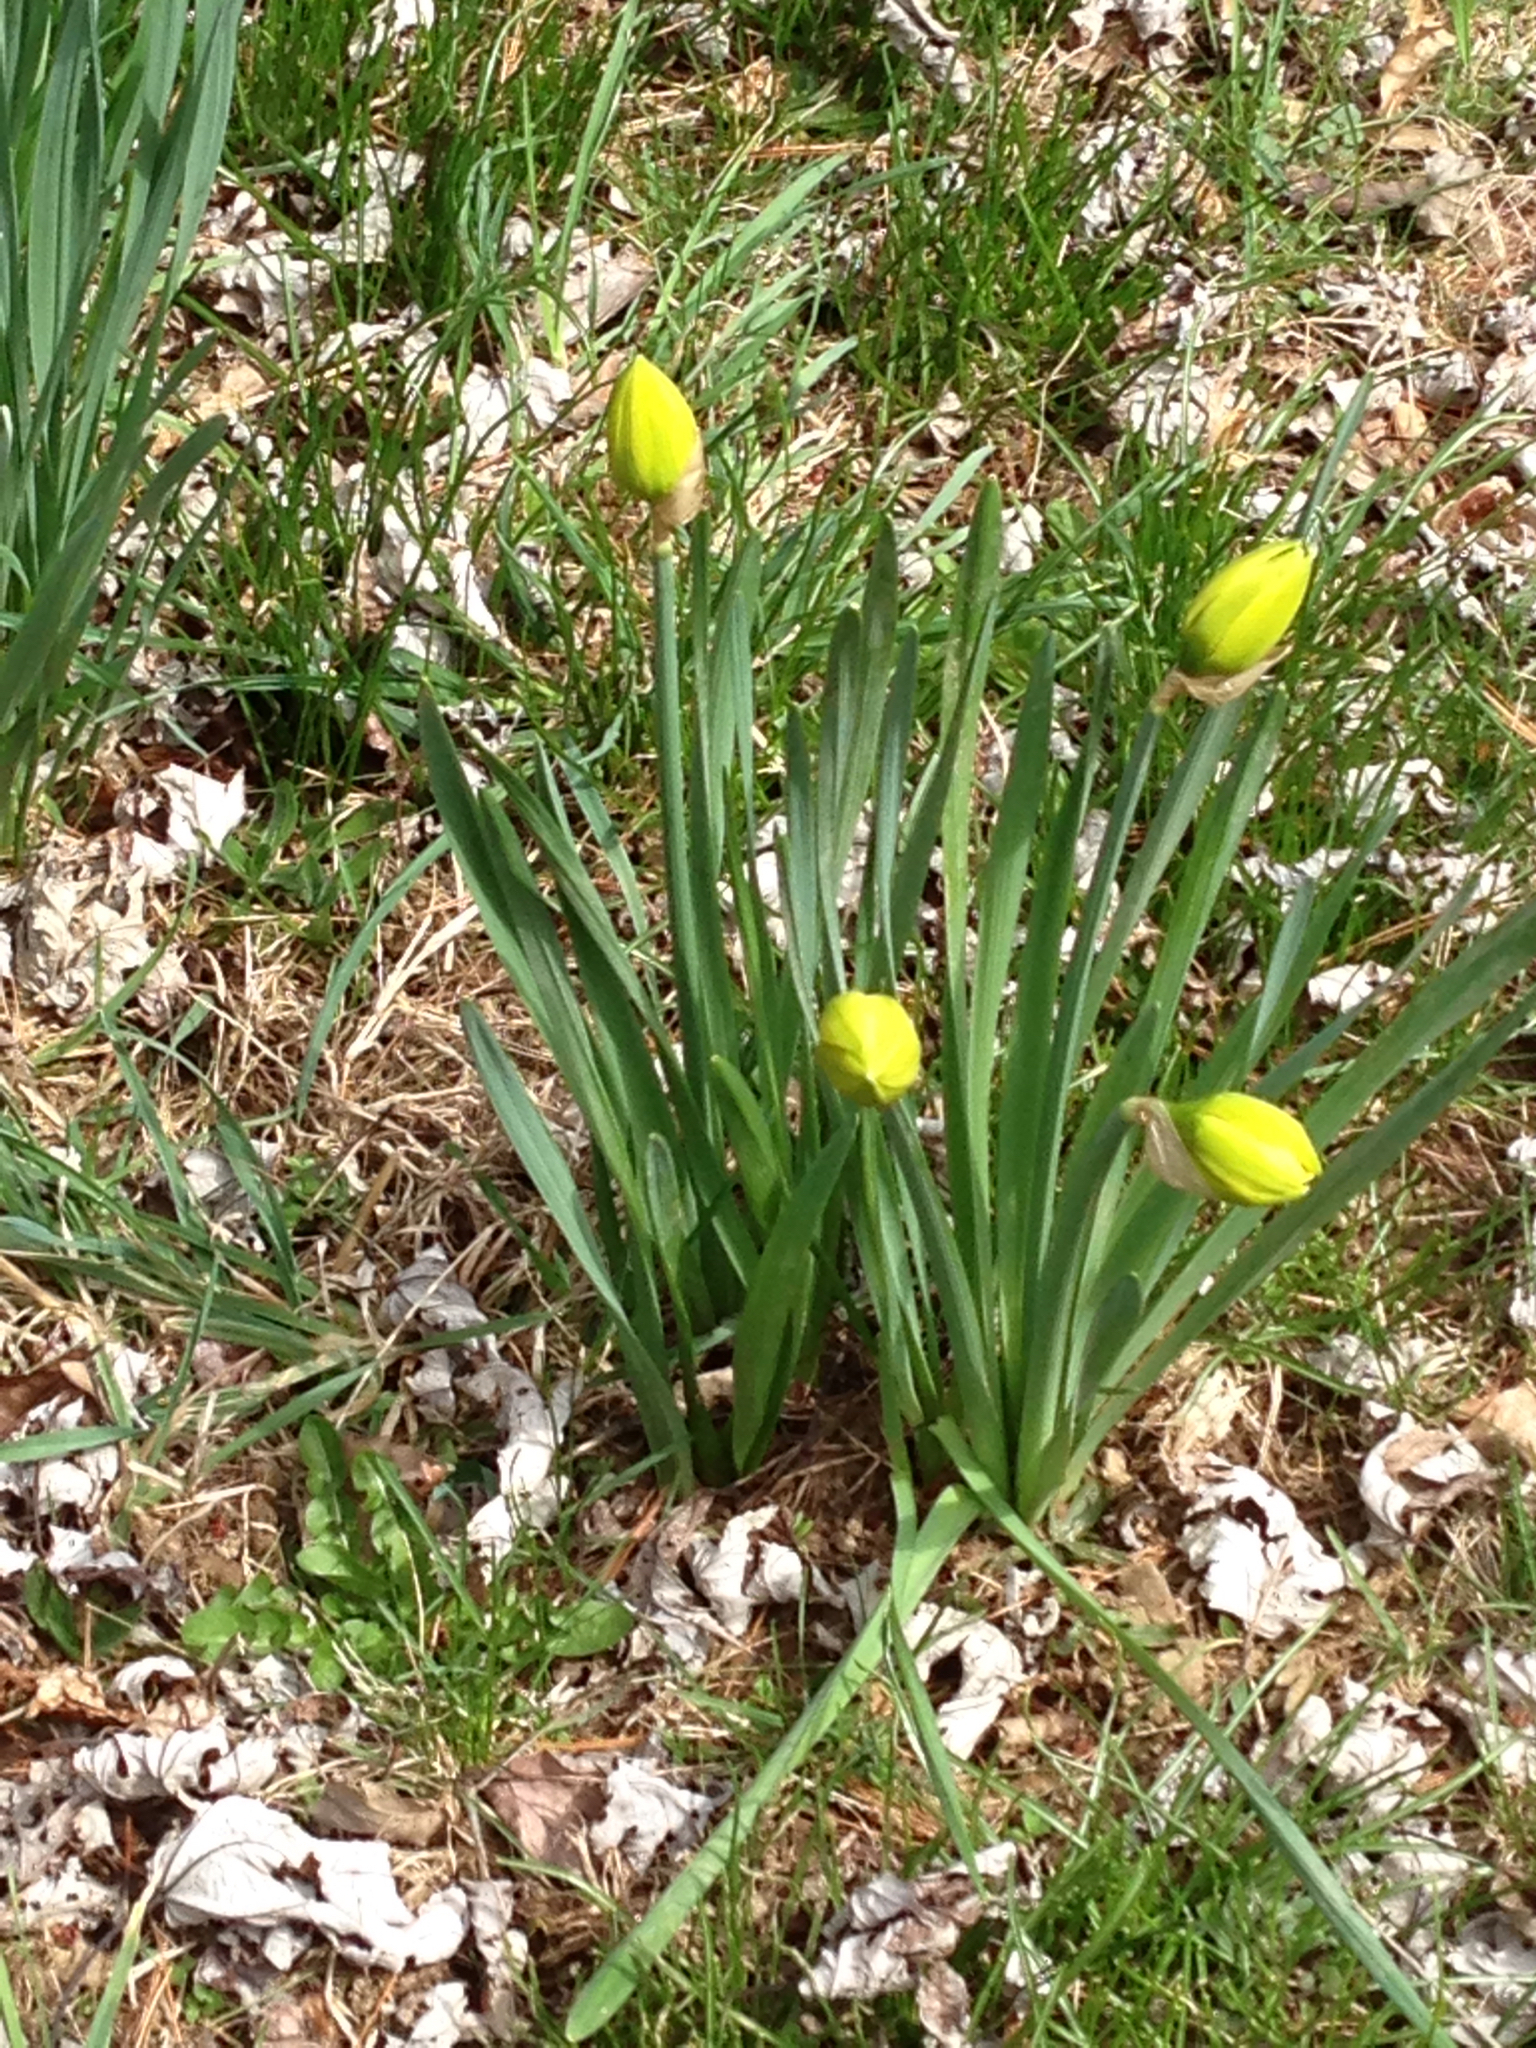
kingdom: Plantae
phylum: Tracheophyta
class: Liliopsida
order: Asparagales
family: Amaryllidaceae
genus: Narcissus
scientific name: Narcissus
